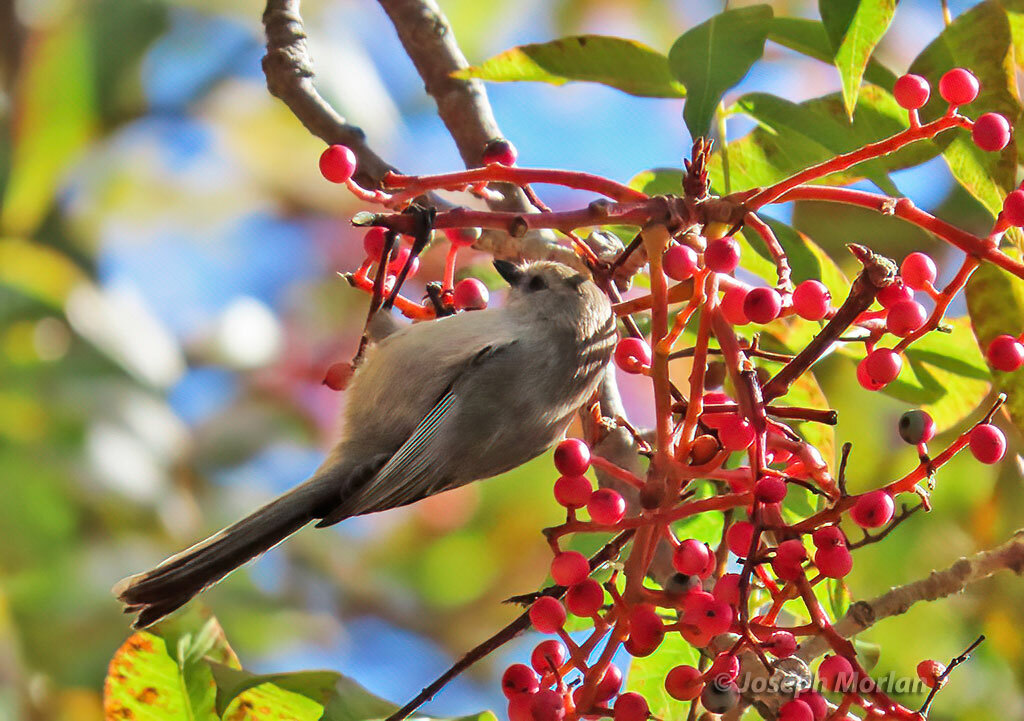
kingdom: Animalia
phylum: Chordata
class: Aves
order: Passeriformes
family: Aegithalidae
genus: Psaltriparus
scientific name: Psaltriparus minimus
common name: American bushtit
